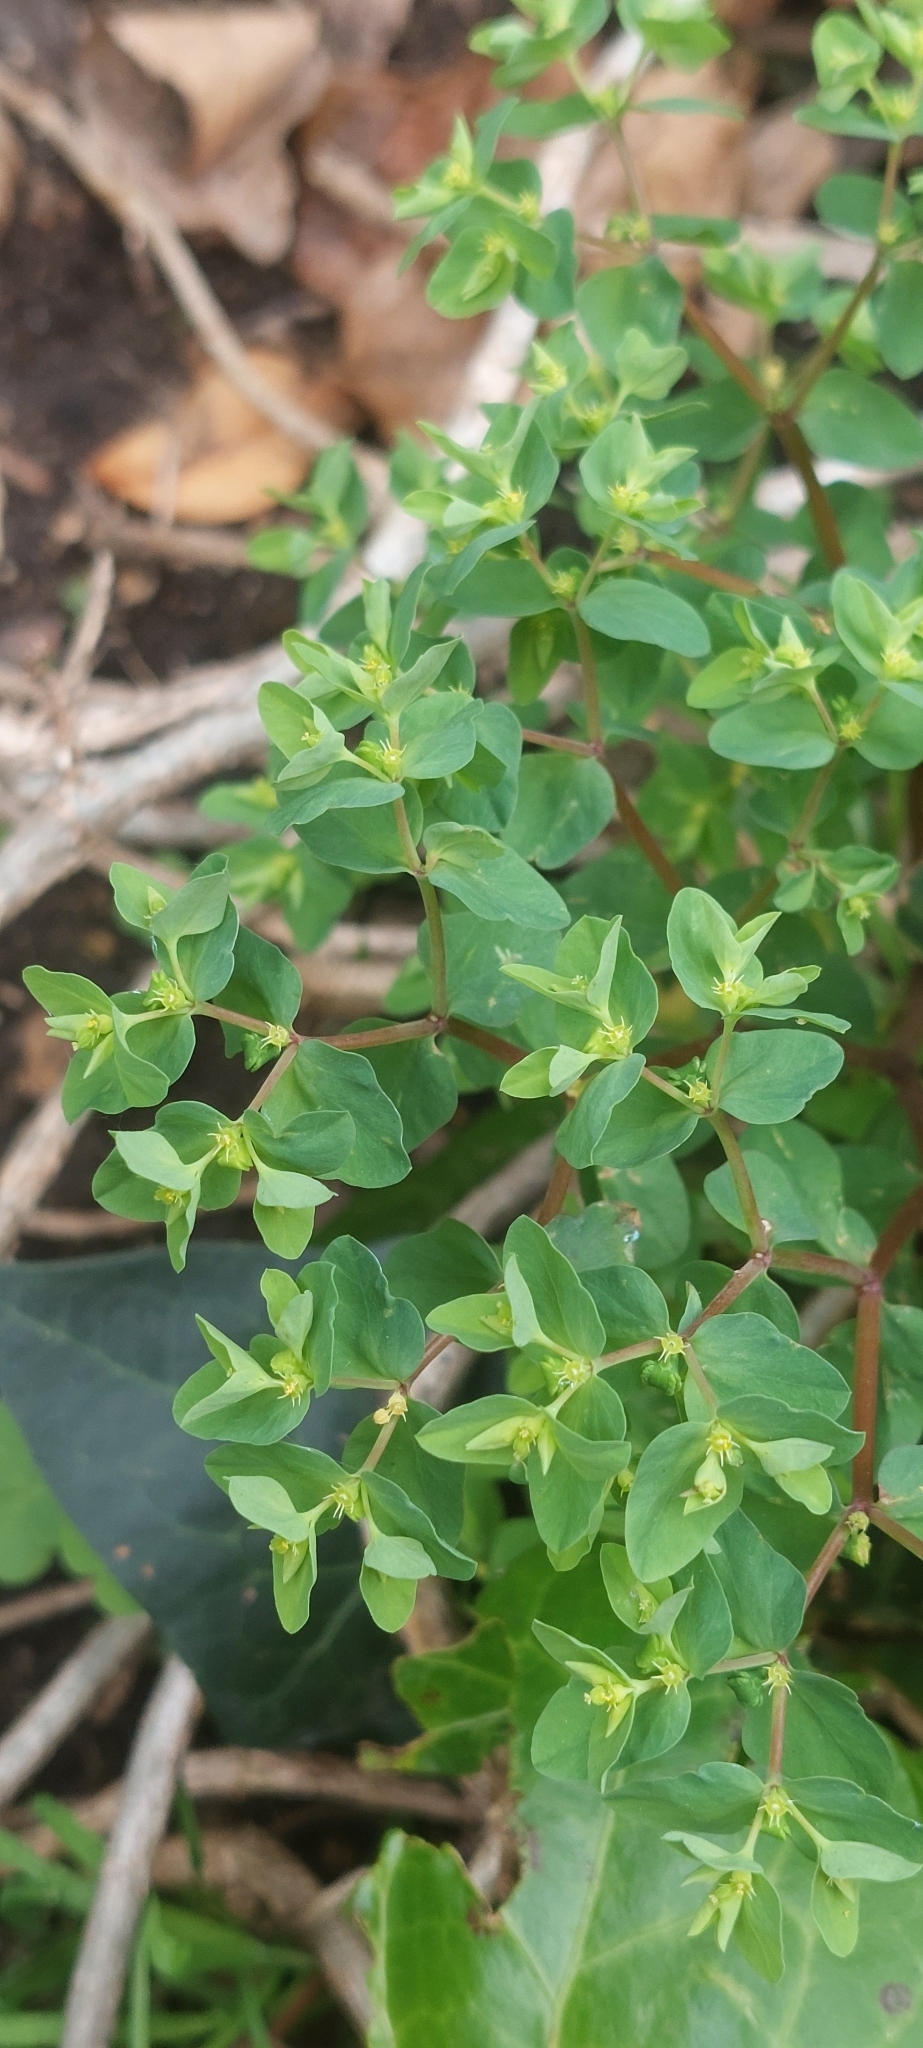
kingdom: Plantae
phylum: Tracheophyta
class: Magnoliopsida
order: Malpighiales
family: Euphorbiaceae
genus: Euphorbia
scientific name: Euphorbia peplus
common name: Petty spurge
